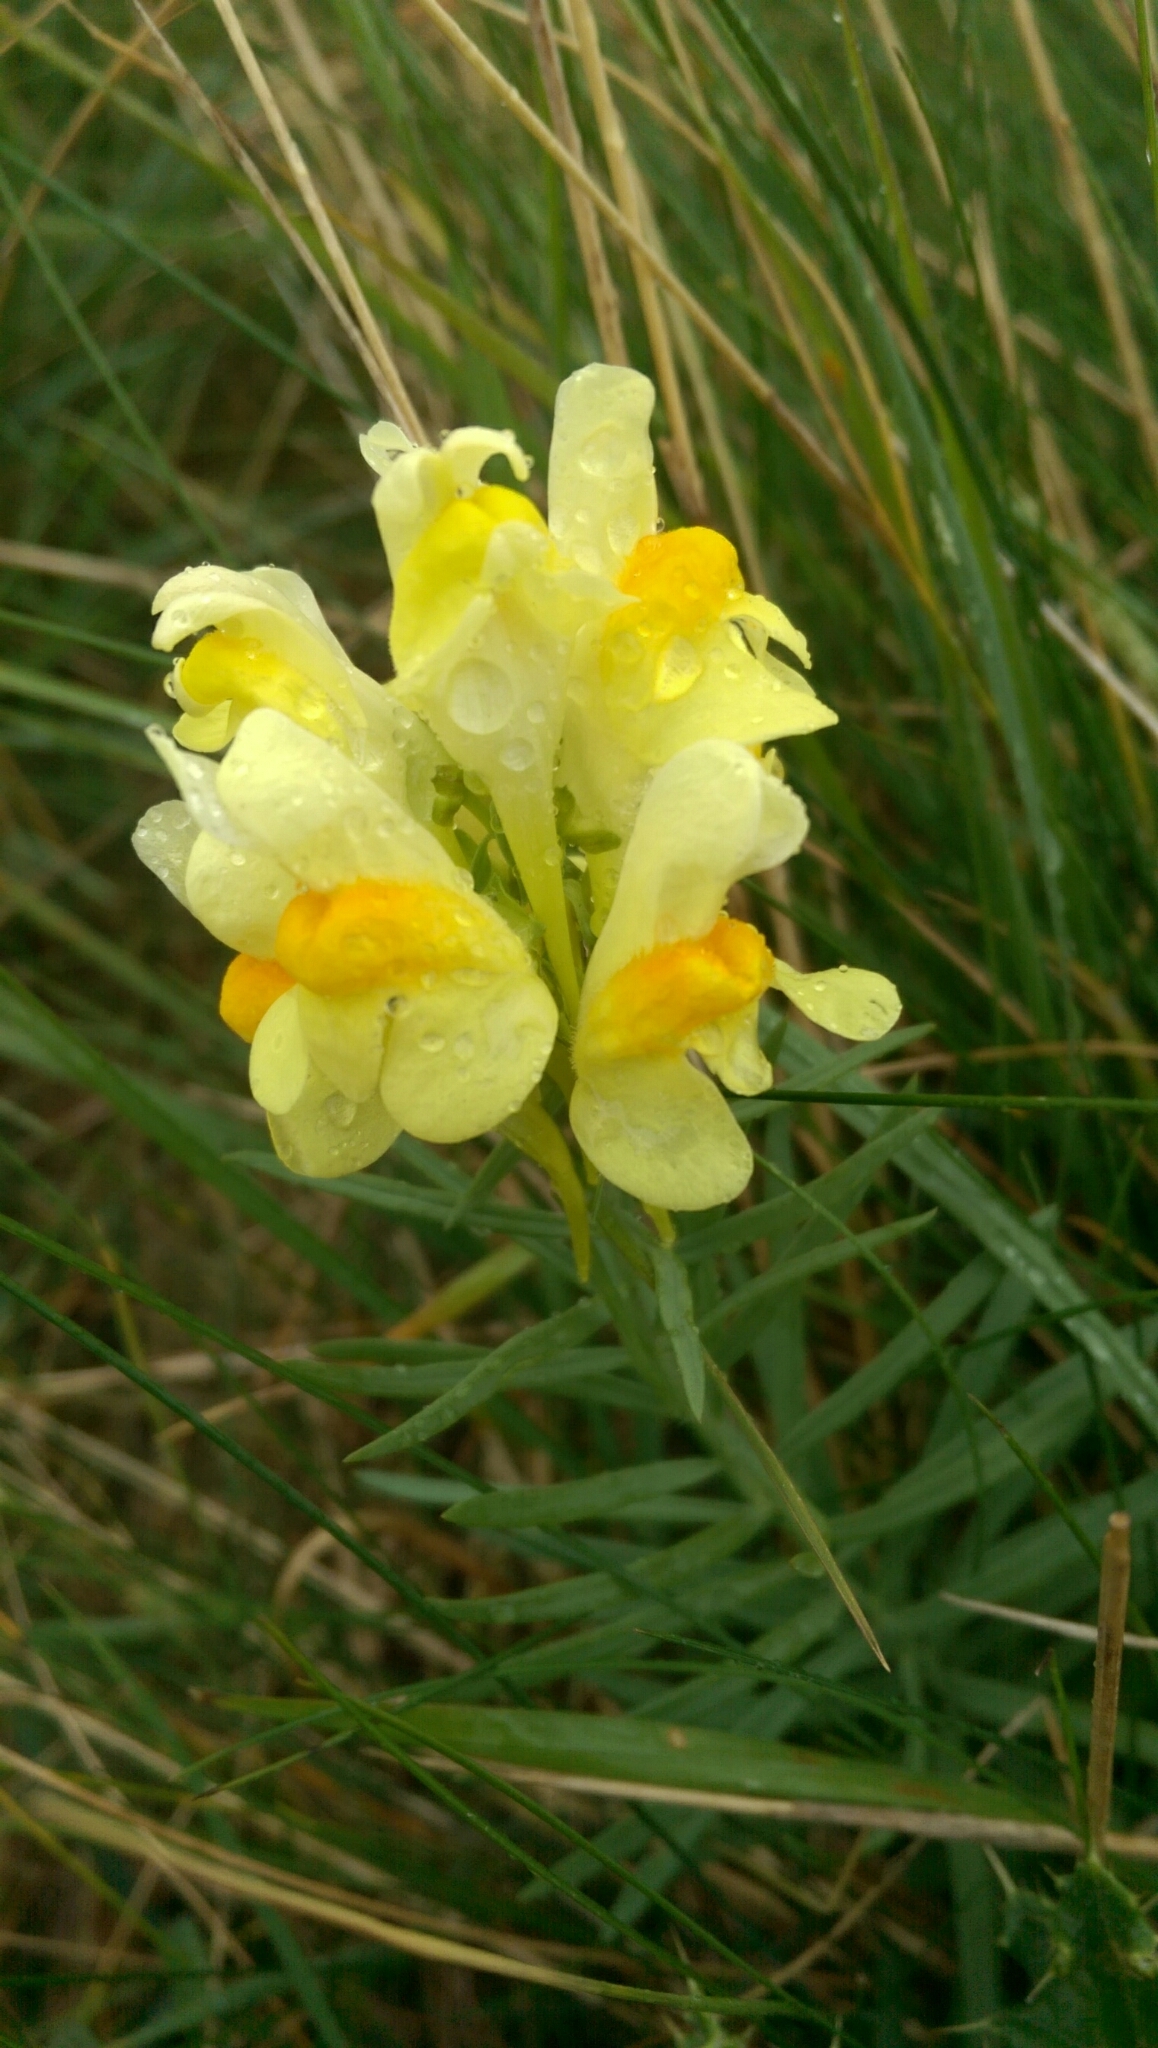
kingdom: Plantae
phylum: Tracheophyta
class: Magnoliopsida
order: Lamiales
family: Plantaginaceae
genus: Linaria
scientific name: Linaria vulgaris
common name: Butter and eggs
